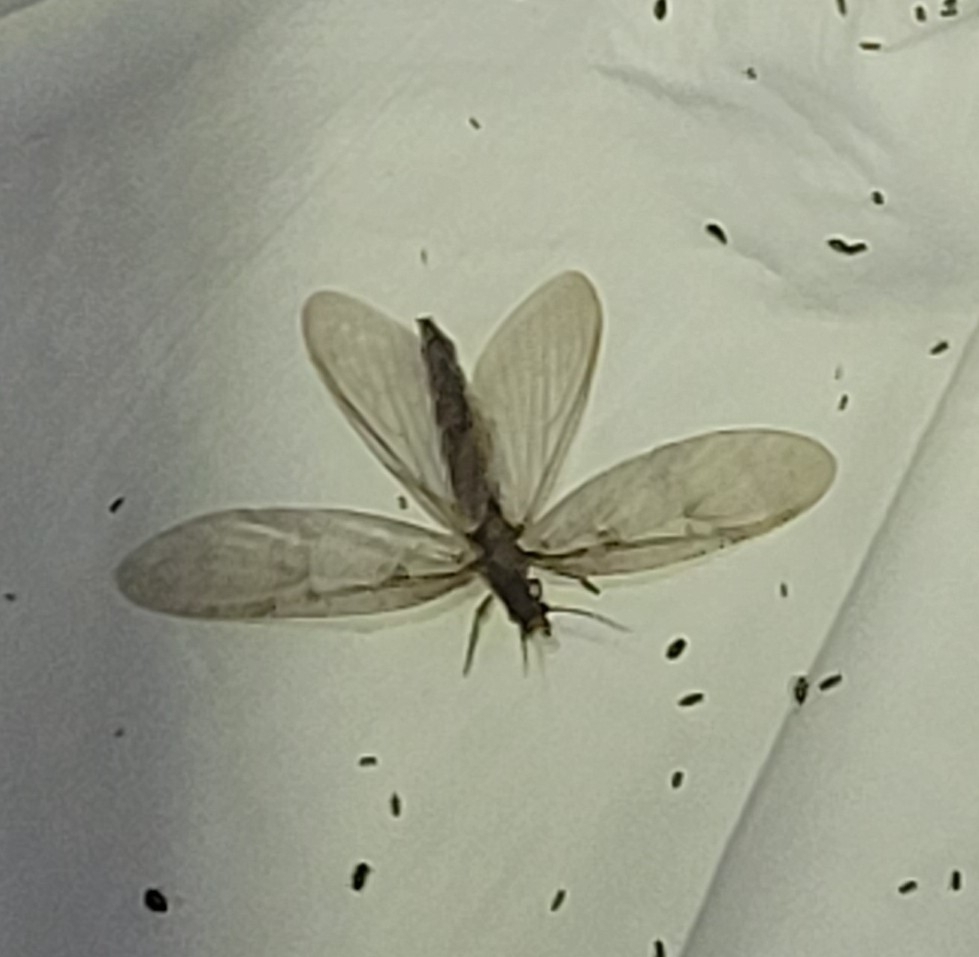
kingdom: Animalia
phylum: Arthropoda
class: Insecta
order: Megaloptera
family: Corydalidae
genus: Chauliodes
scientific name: Chauliodes pectinicornis
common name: Summer fishfly
